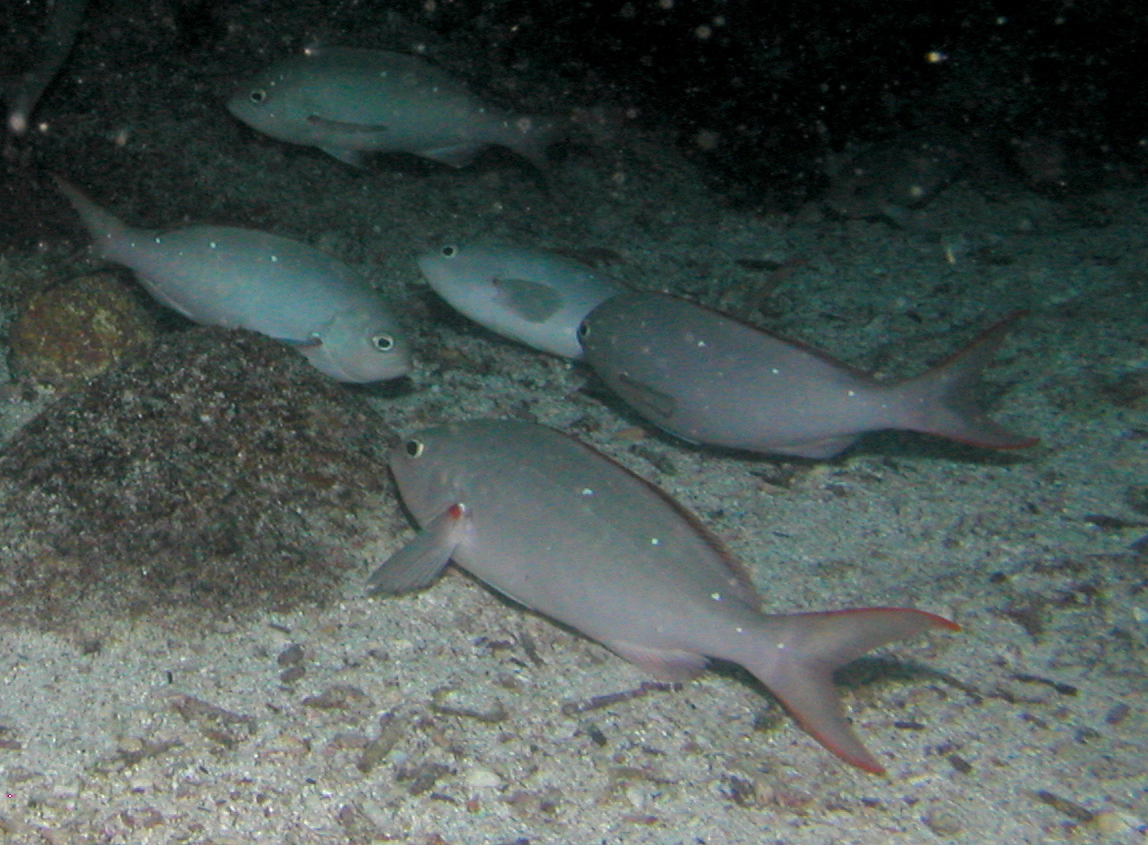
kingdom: Animalia
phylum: Chordata
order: Perciformes
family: Serranidae
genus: Paranthias
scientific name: Paranthias colonus
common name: Pacific creole-fish
